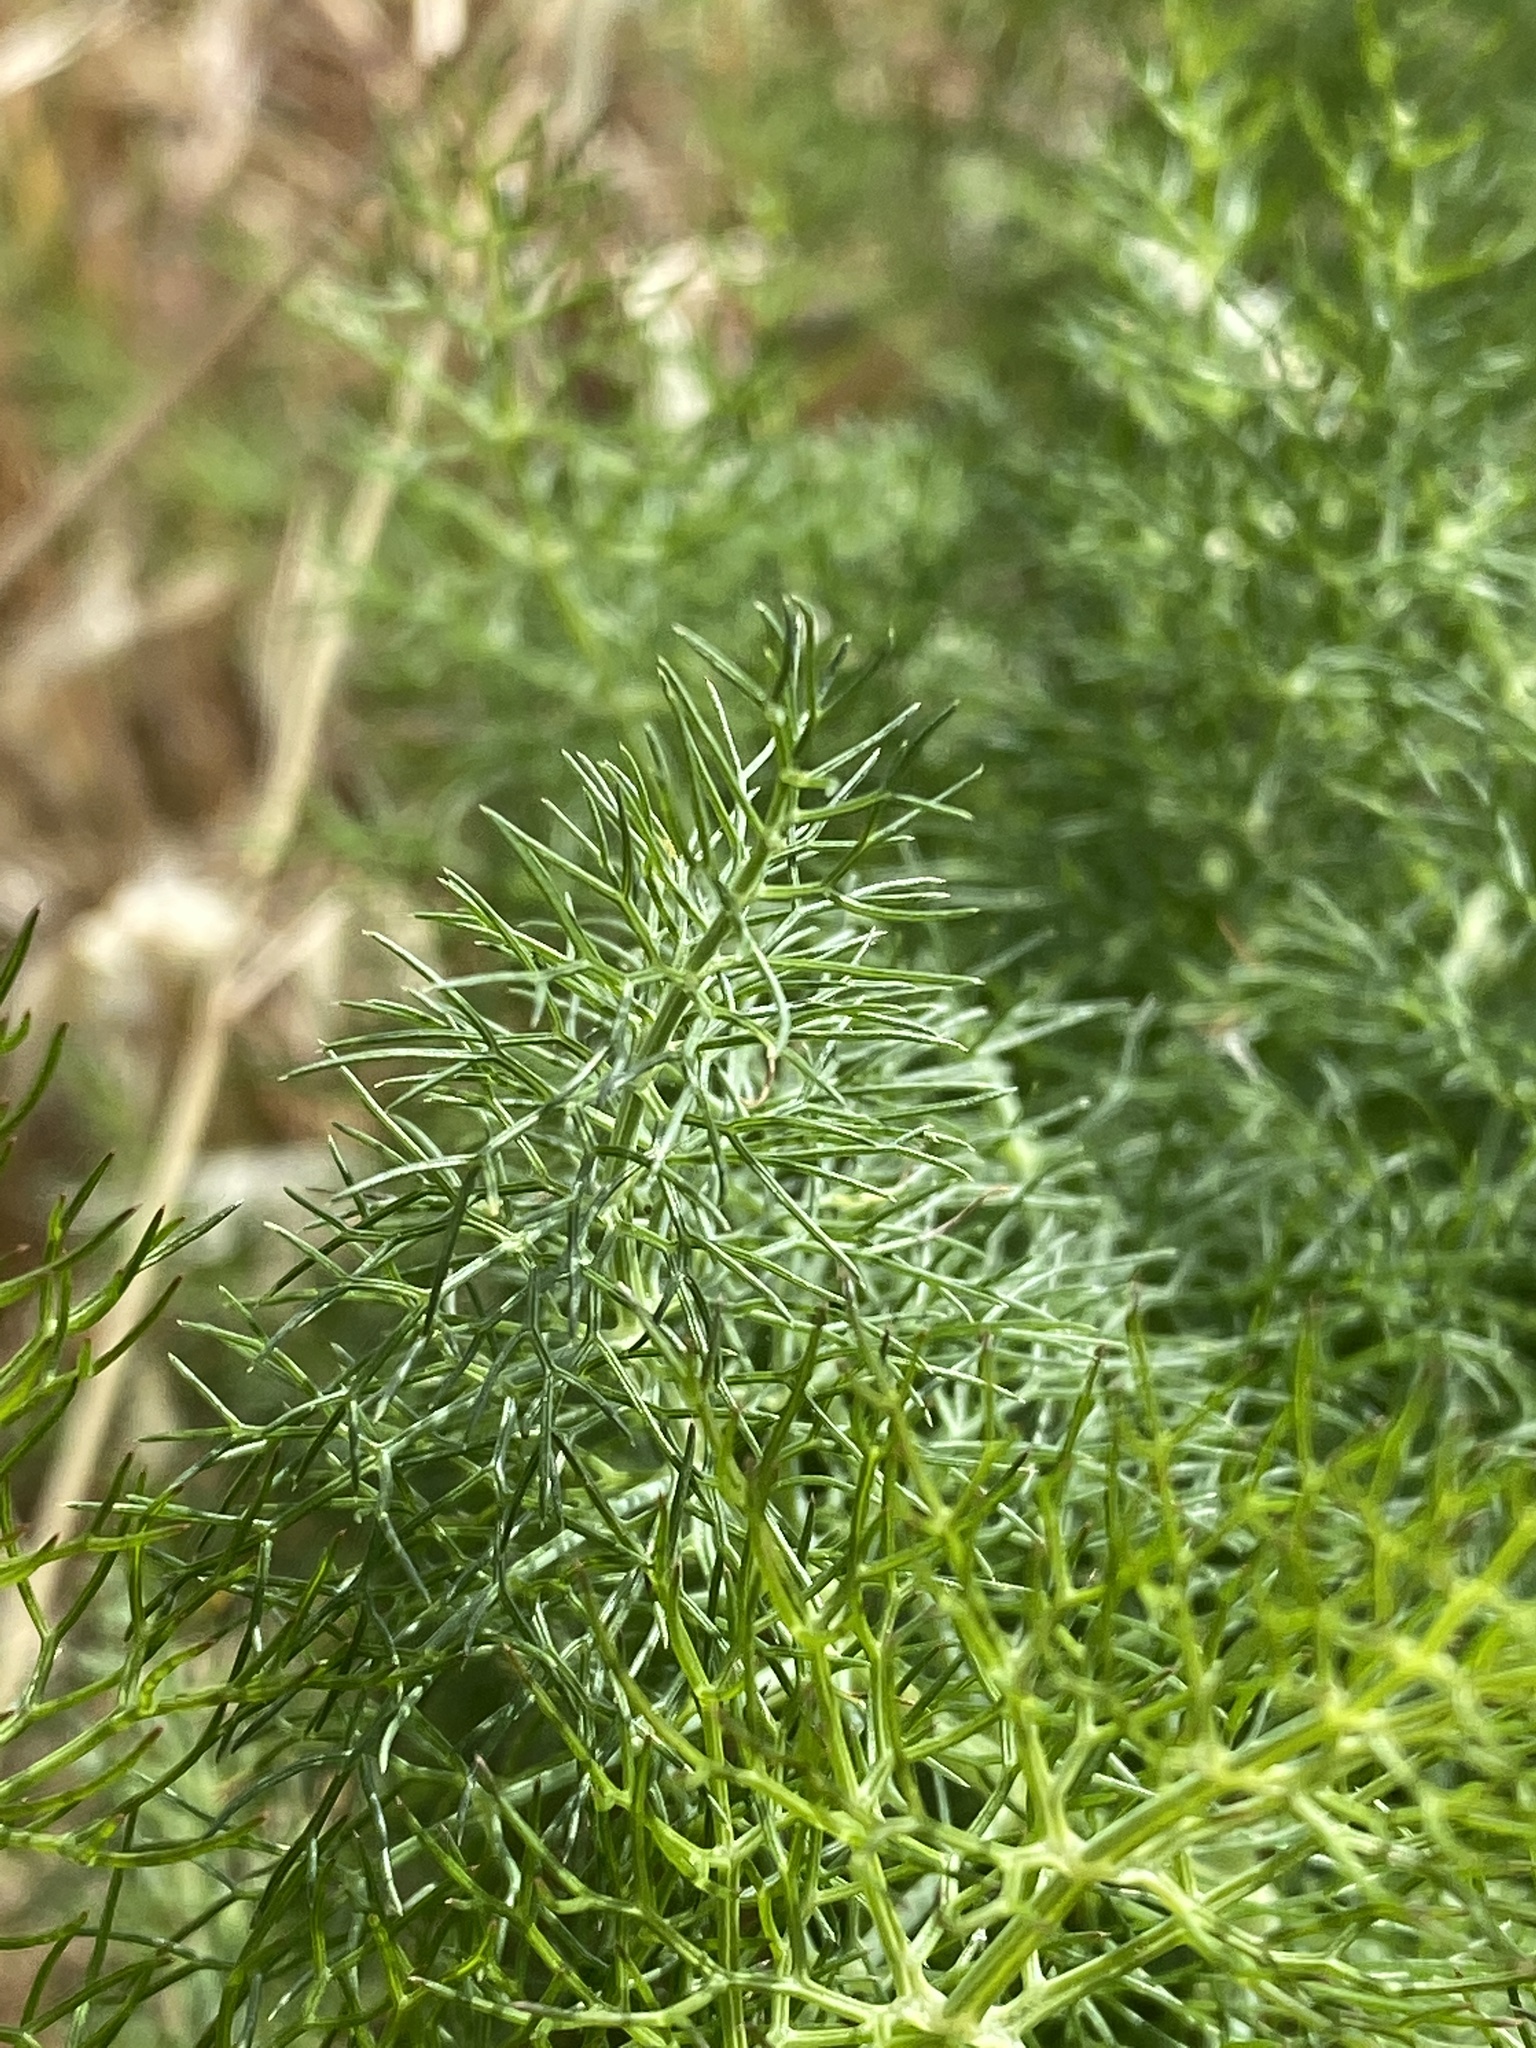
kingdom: Plantae
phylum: Tracheophyta
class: Magnoliopsida
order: Apiales
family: Apiaceae
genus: Foeniculum
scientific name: Foeniculum vulgare
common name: Fennel
